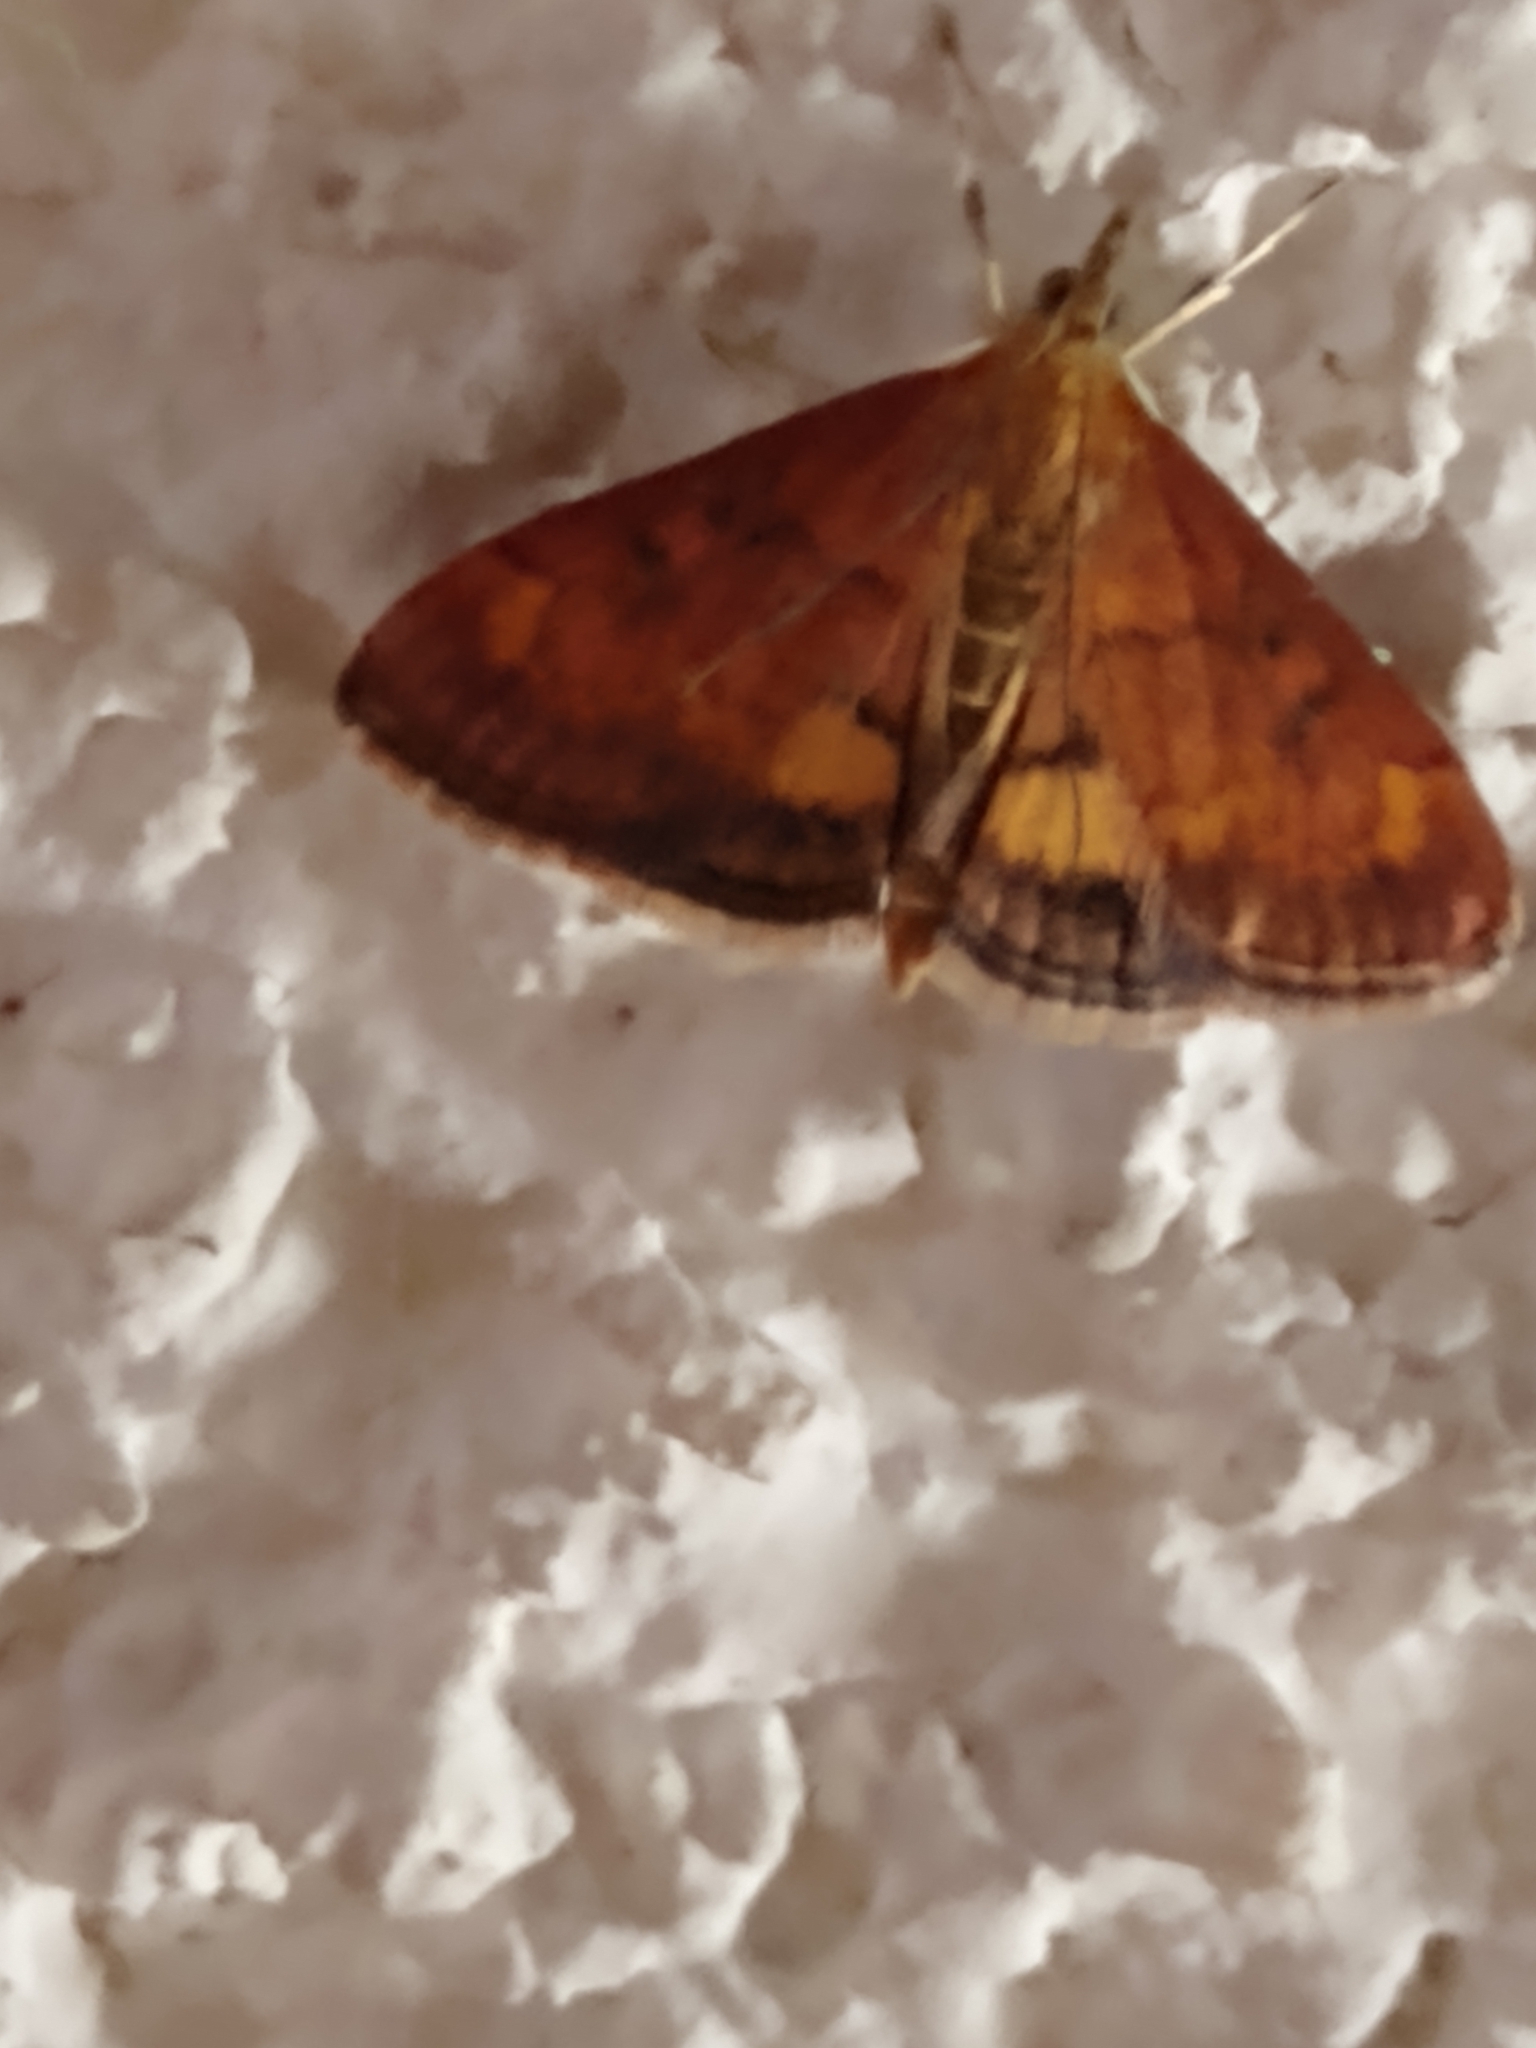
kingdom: Animalia
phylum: Arthropoda
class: Insecta
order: Lepidoptera
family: Crambidae
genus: Pyrausta
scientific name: Pyrausta californicalis
